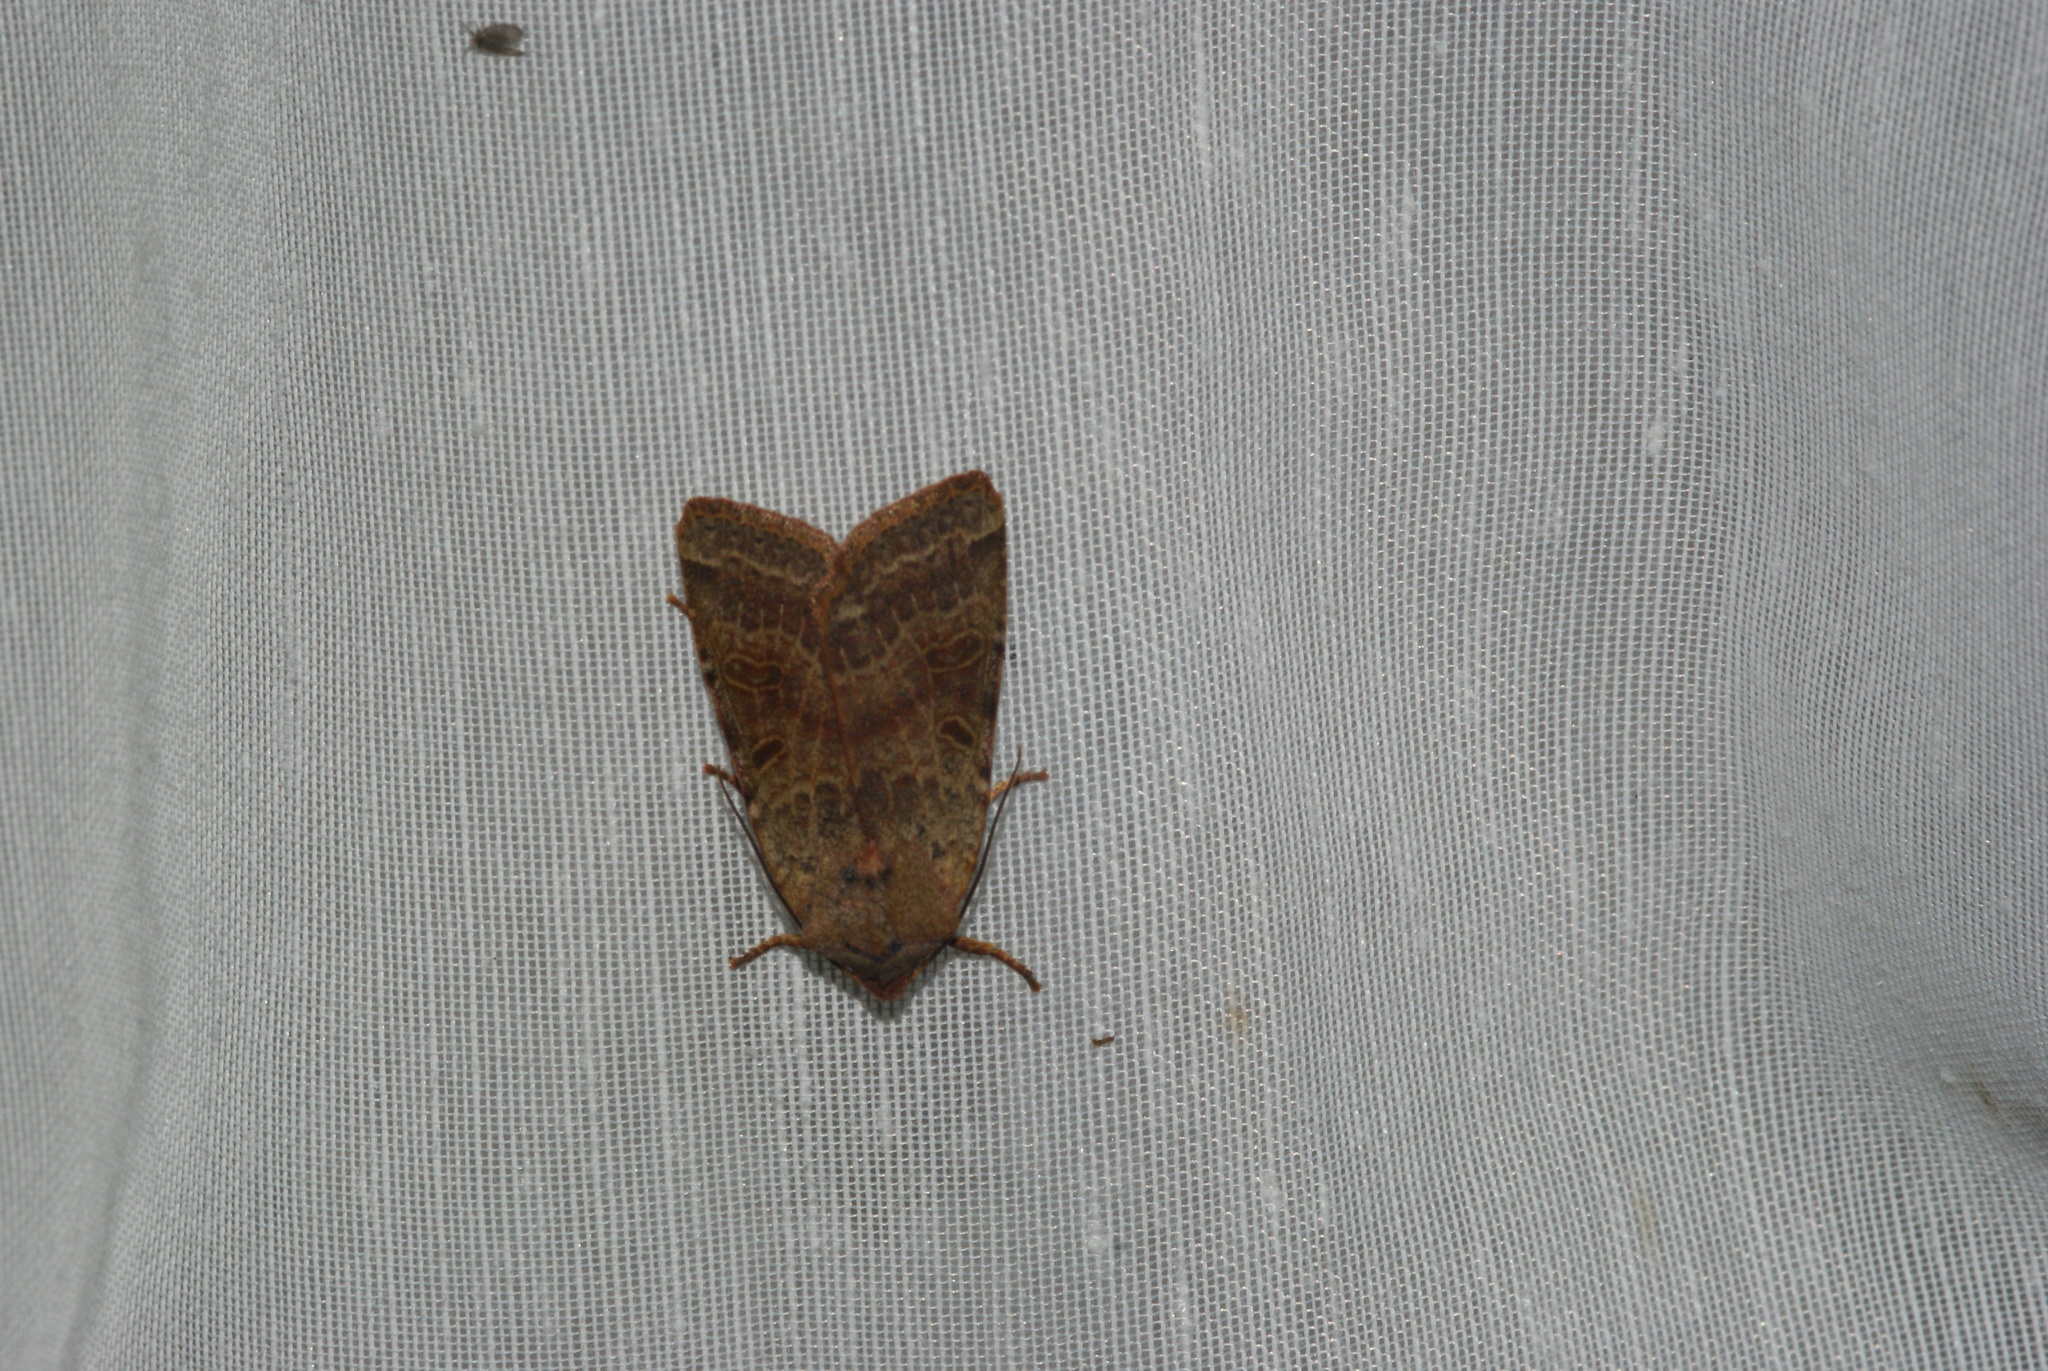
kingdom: Animalia
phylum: Arthropoda
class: Insecta
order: Lepidoptera
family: Noctuidae
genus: Agrochola
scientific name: Agrochola lychnidis
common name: Beaded chestnut
